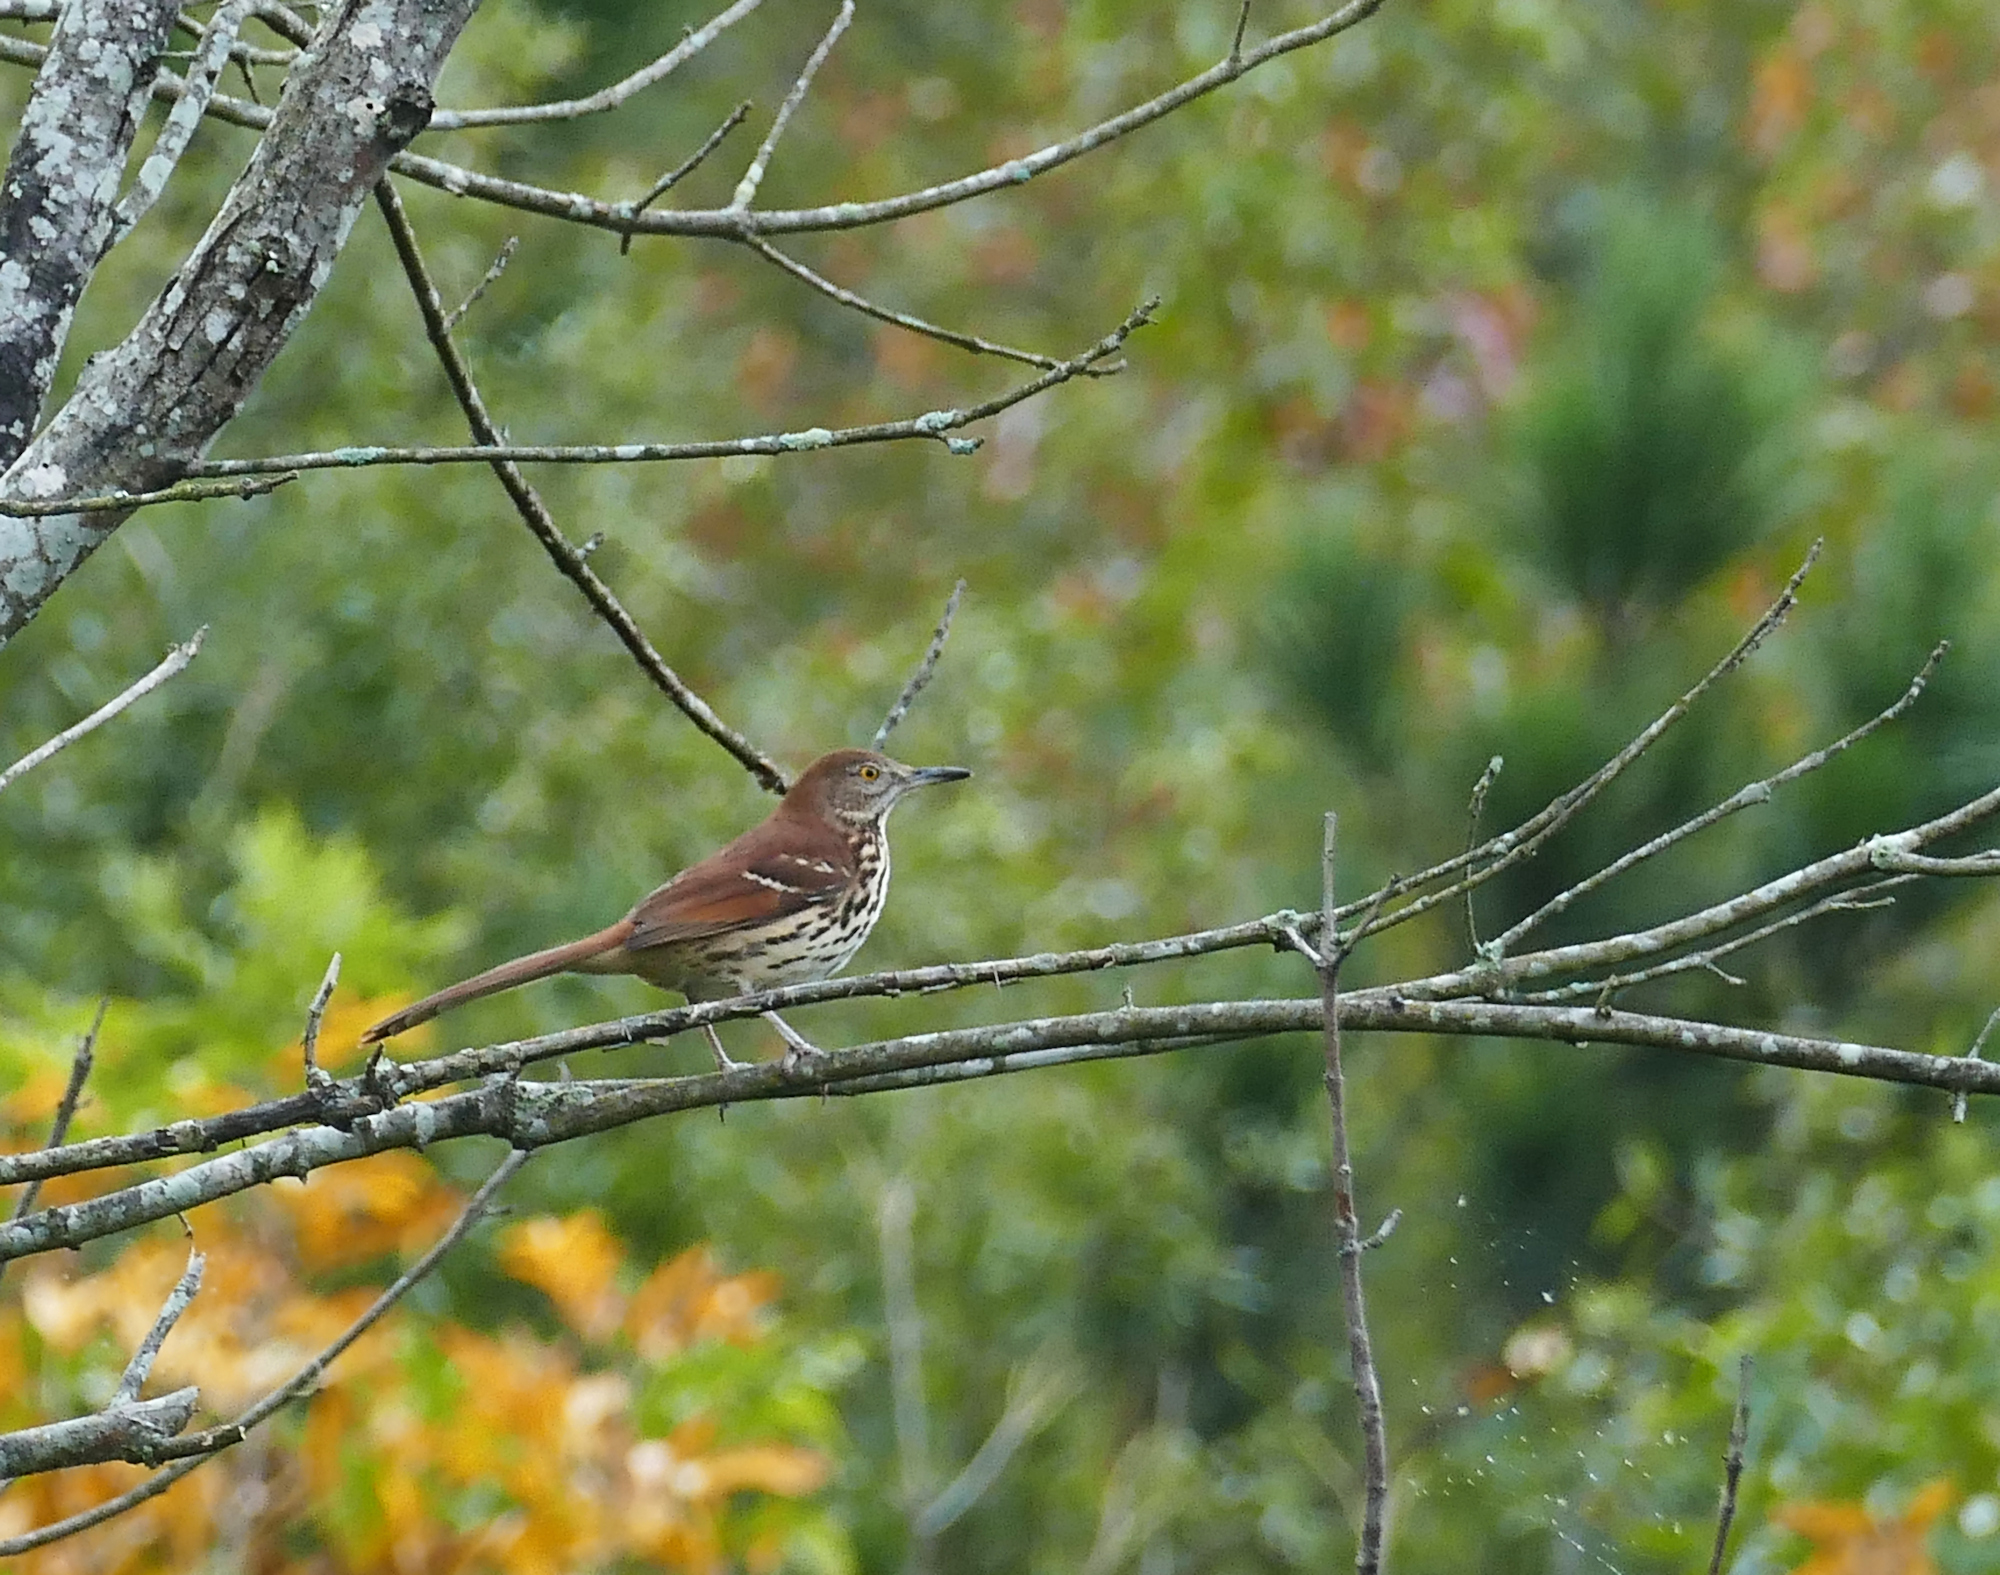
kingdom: Animalia
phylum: Chordata
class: Aves
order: Passeriformes
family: Mimidae
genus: Toxostoma
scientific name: Toxostoma rufum
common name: Brown thrasher
